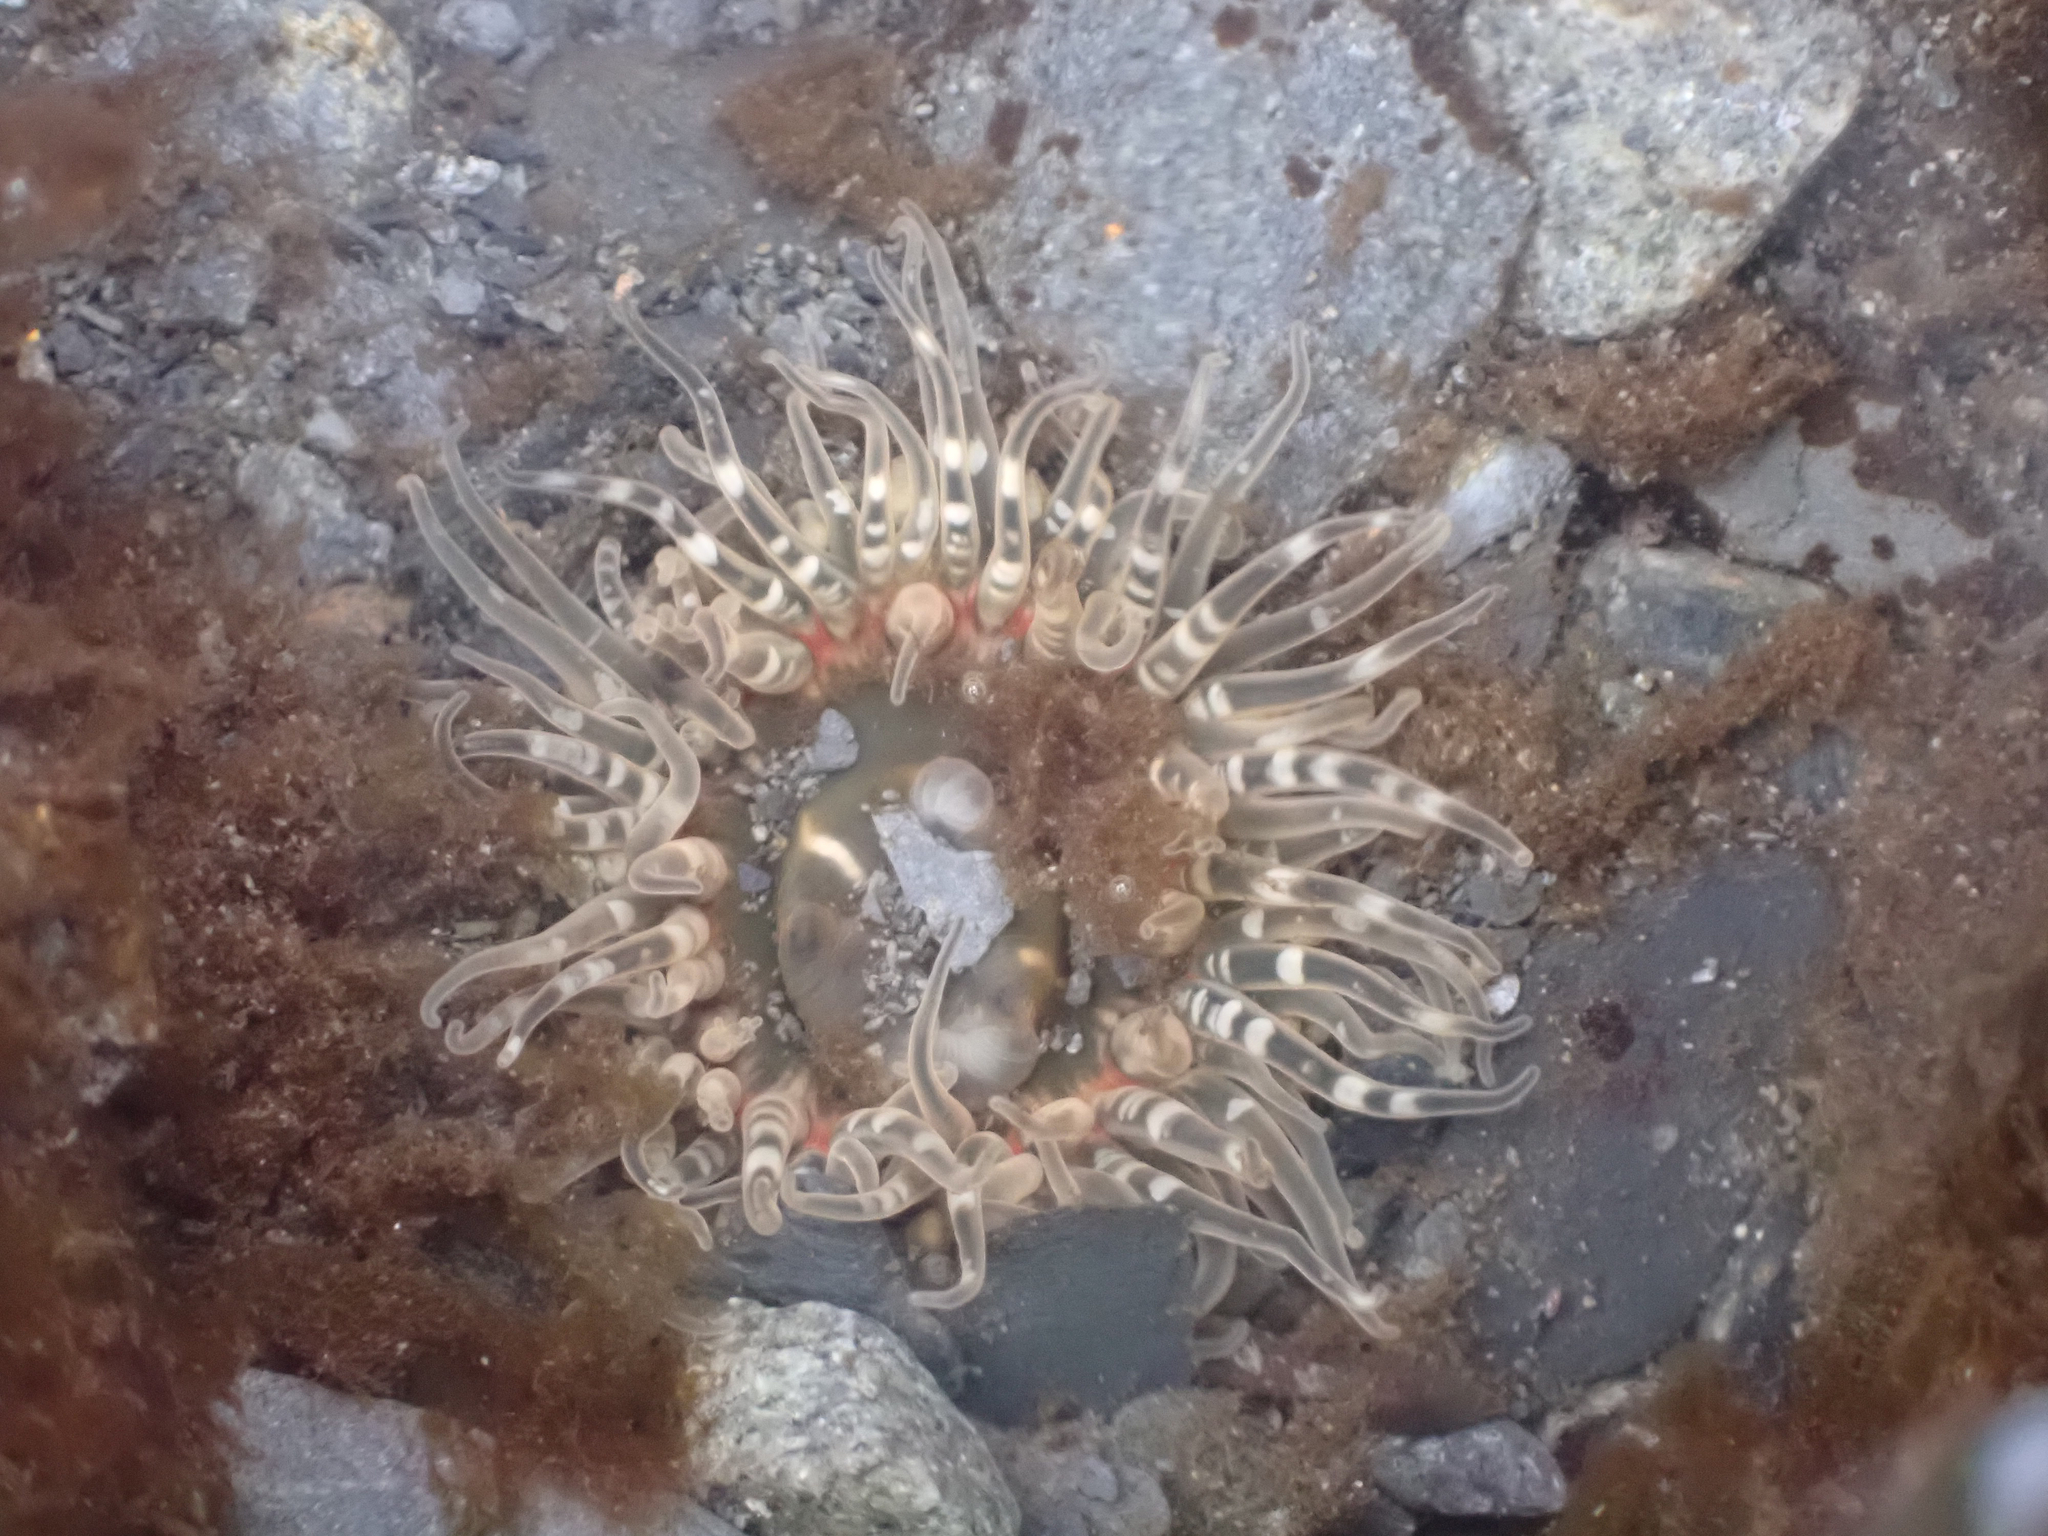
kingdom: Animalia
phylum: Cnidaria
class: Anthozoa
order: Actiniaria
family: Actiniidae
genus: Anthopleura
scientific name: Anthopleura artemisia
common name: Buried sea anemone
